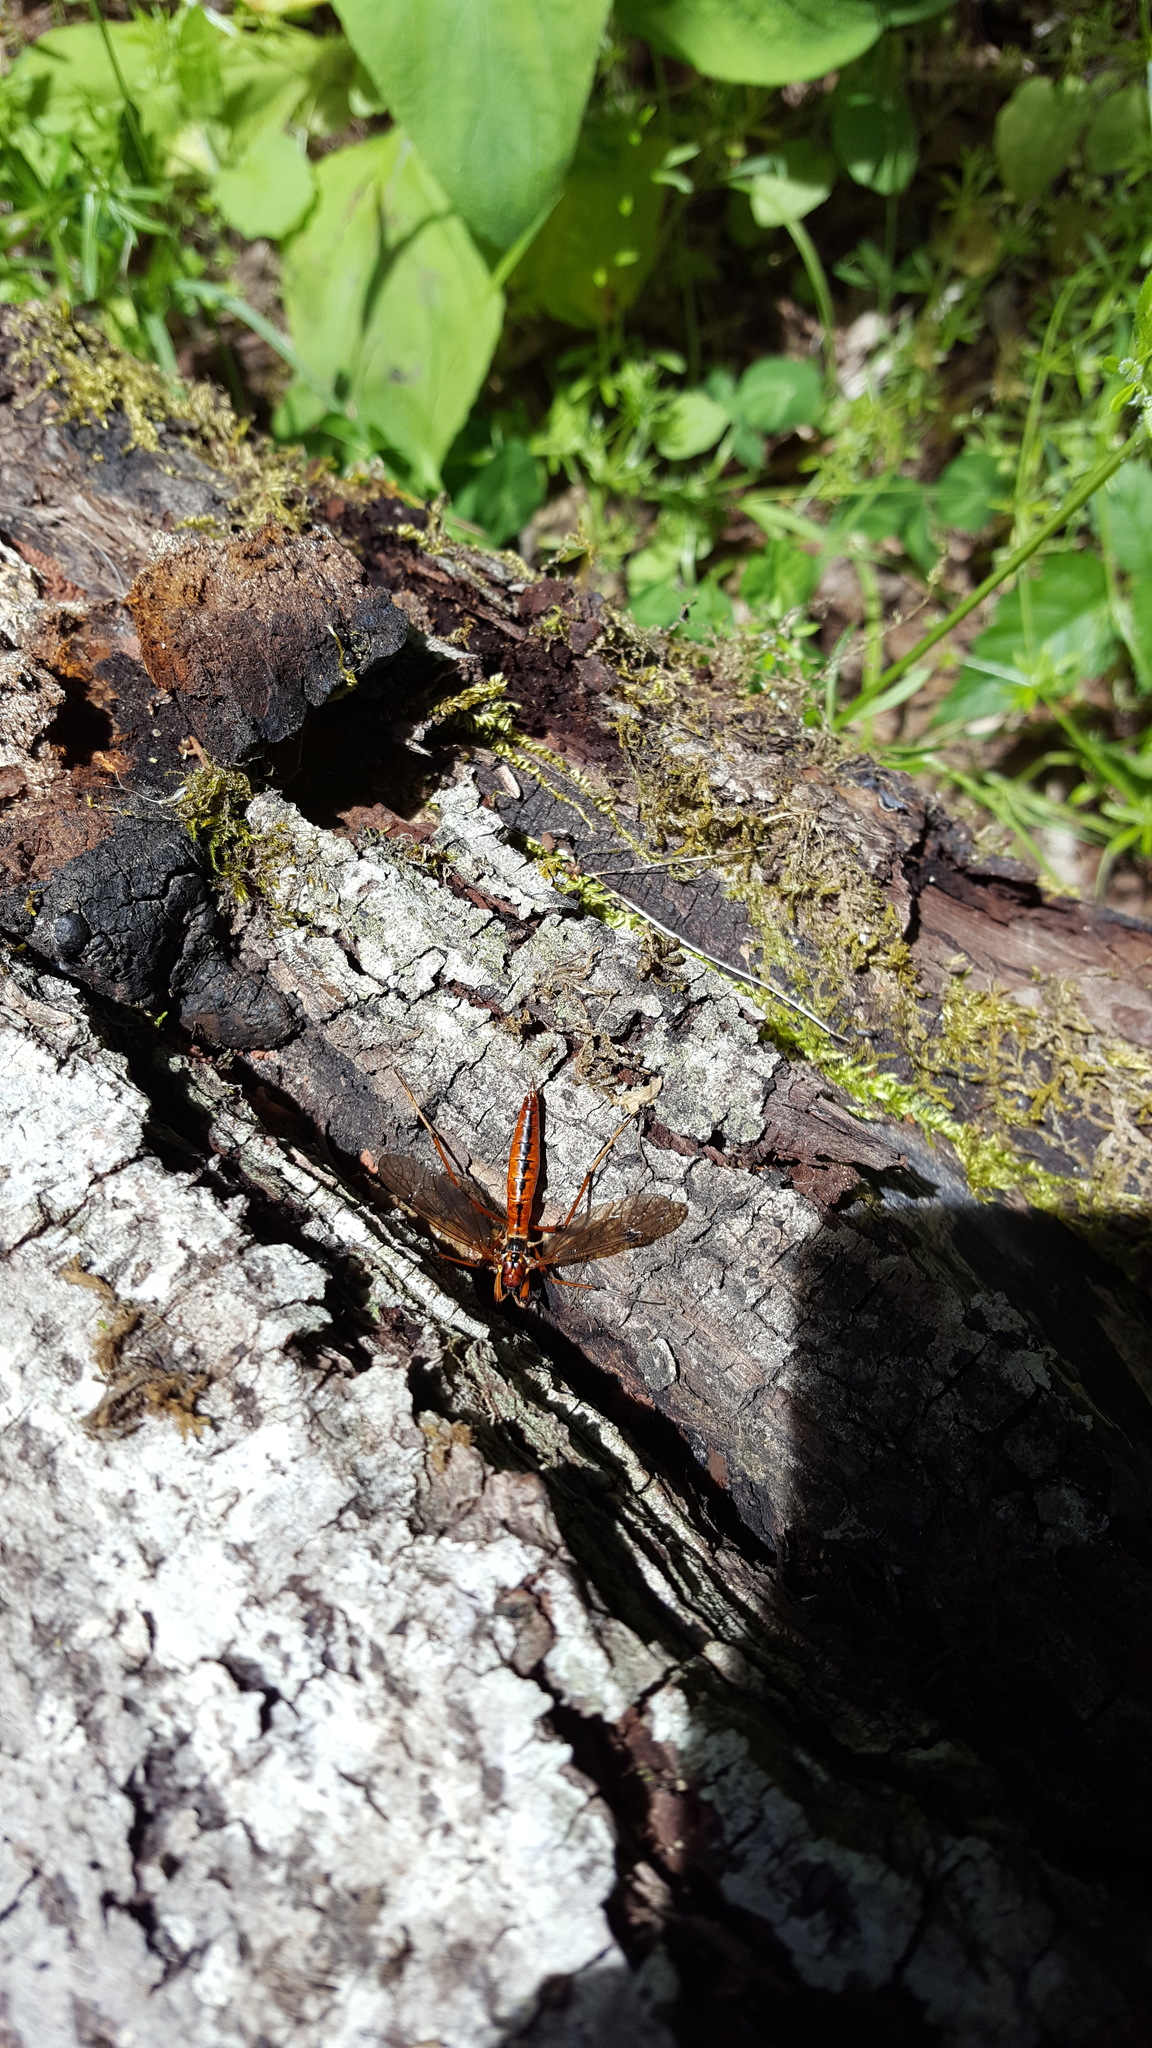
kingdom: Animalia
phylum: Arthropoda
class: Insecta
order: Diptera
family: Tipulidae
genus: Phoroctenia
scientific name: Phoroctenia vittata
